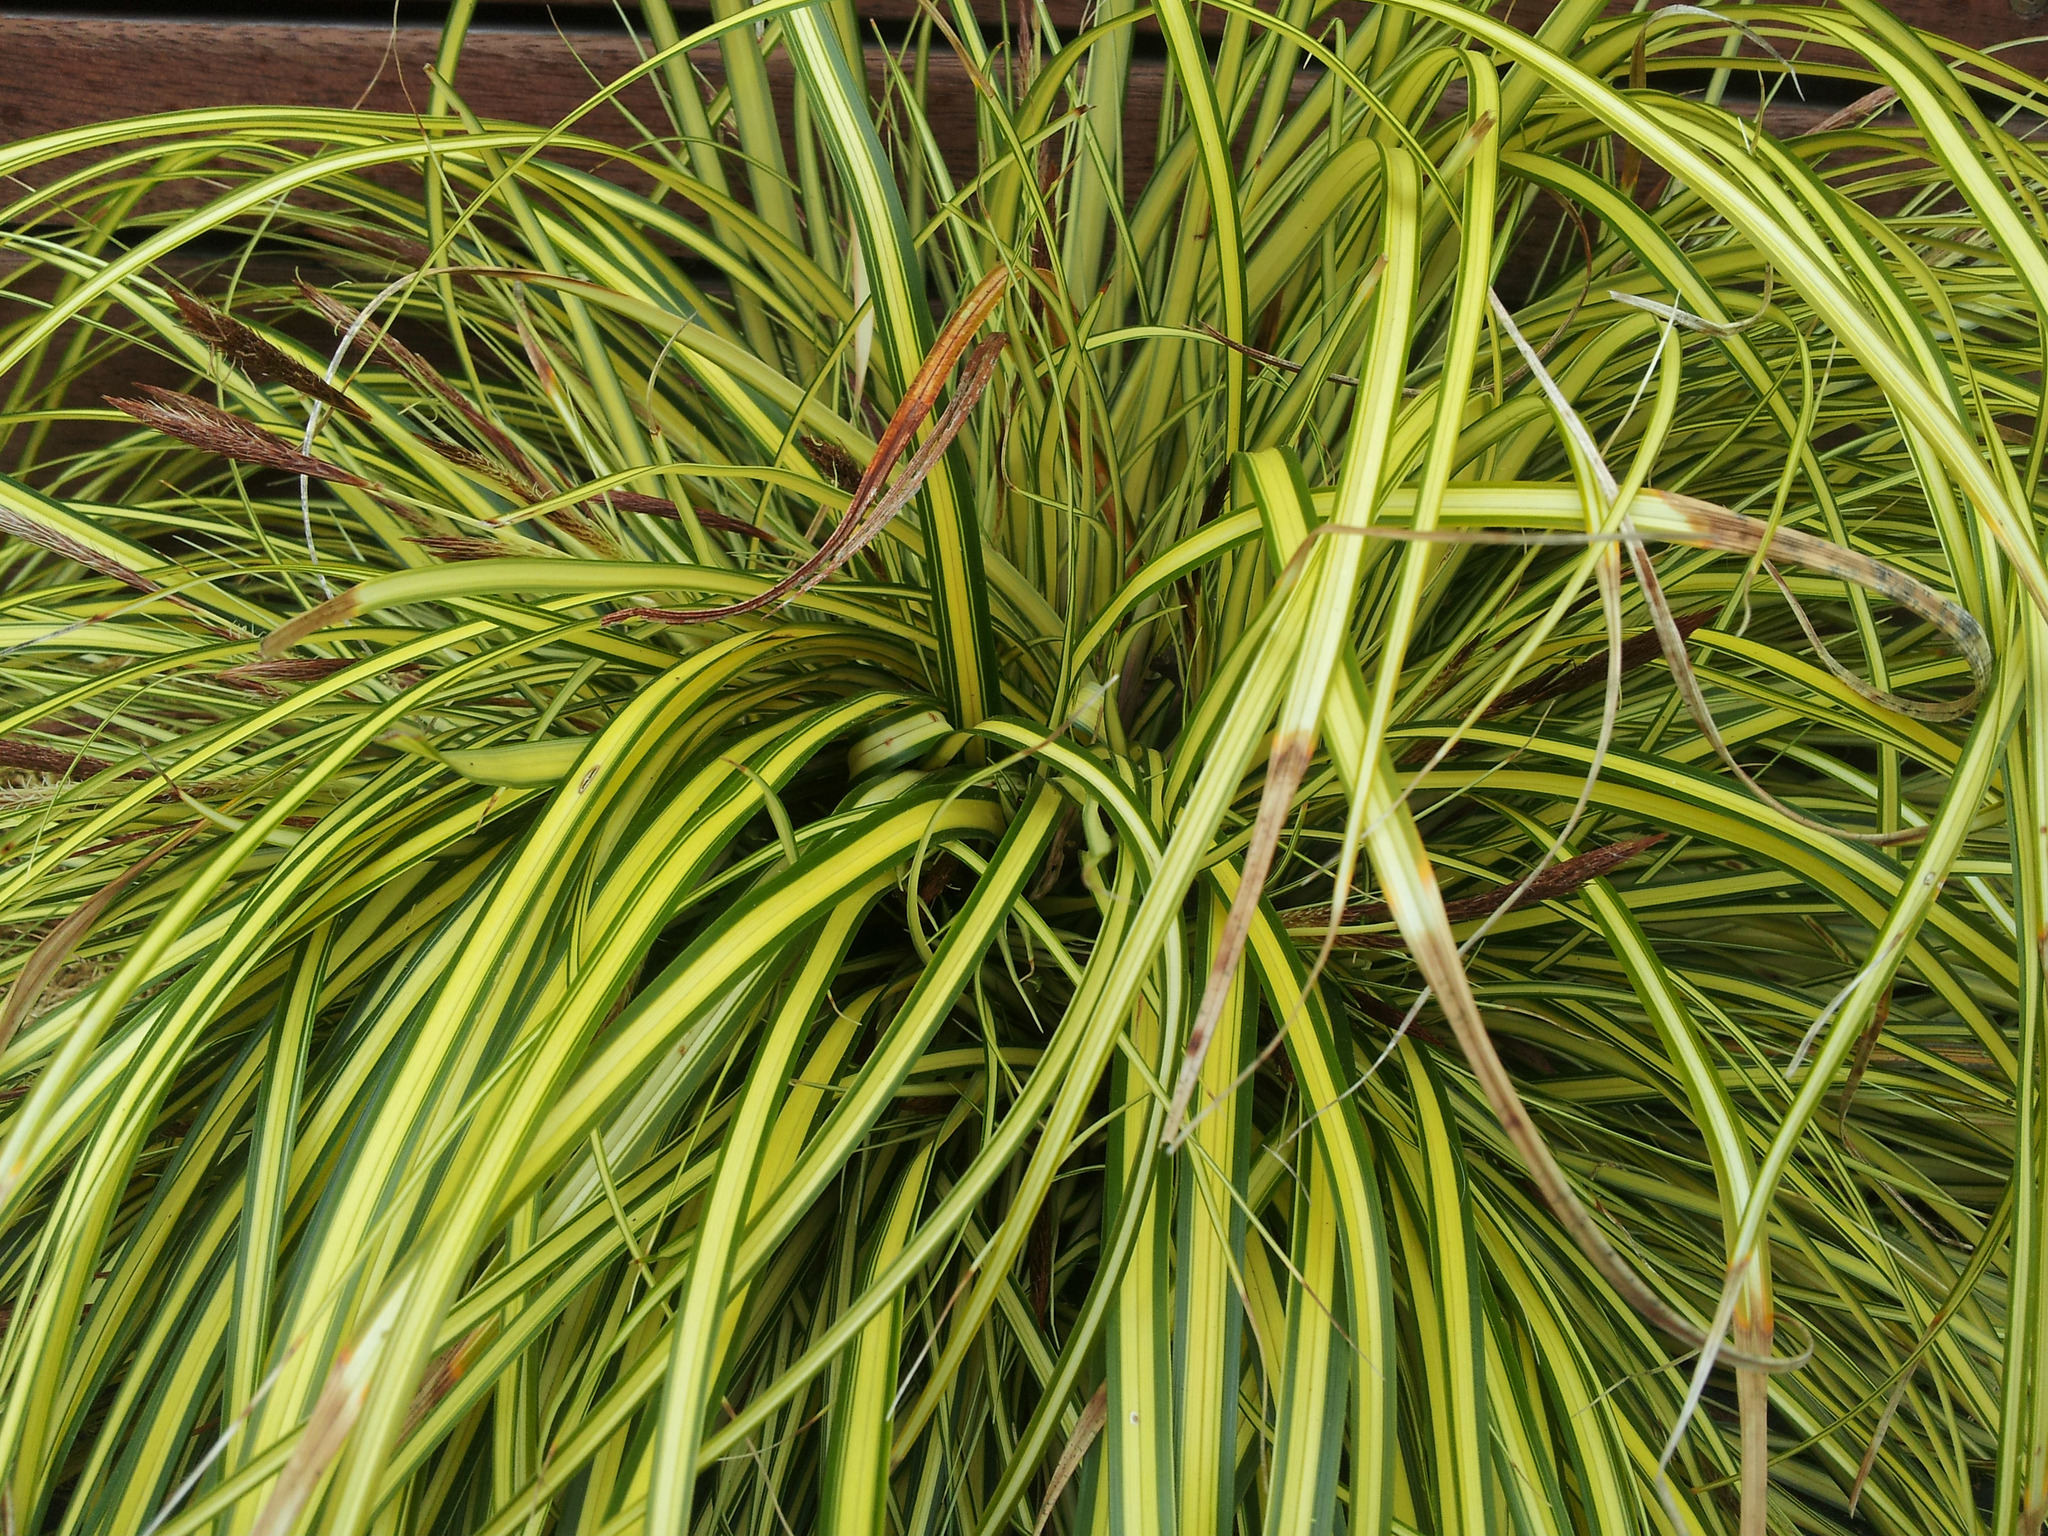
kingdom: Plantae
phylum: Tracheophyta
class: Liliopsida
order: Poales
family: Cyperaceae
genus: Carex
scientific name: Carex morrowii
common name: Japanese sedge
